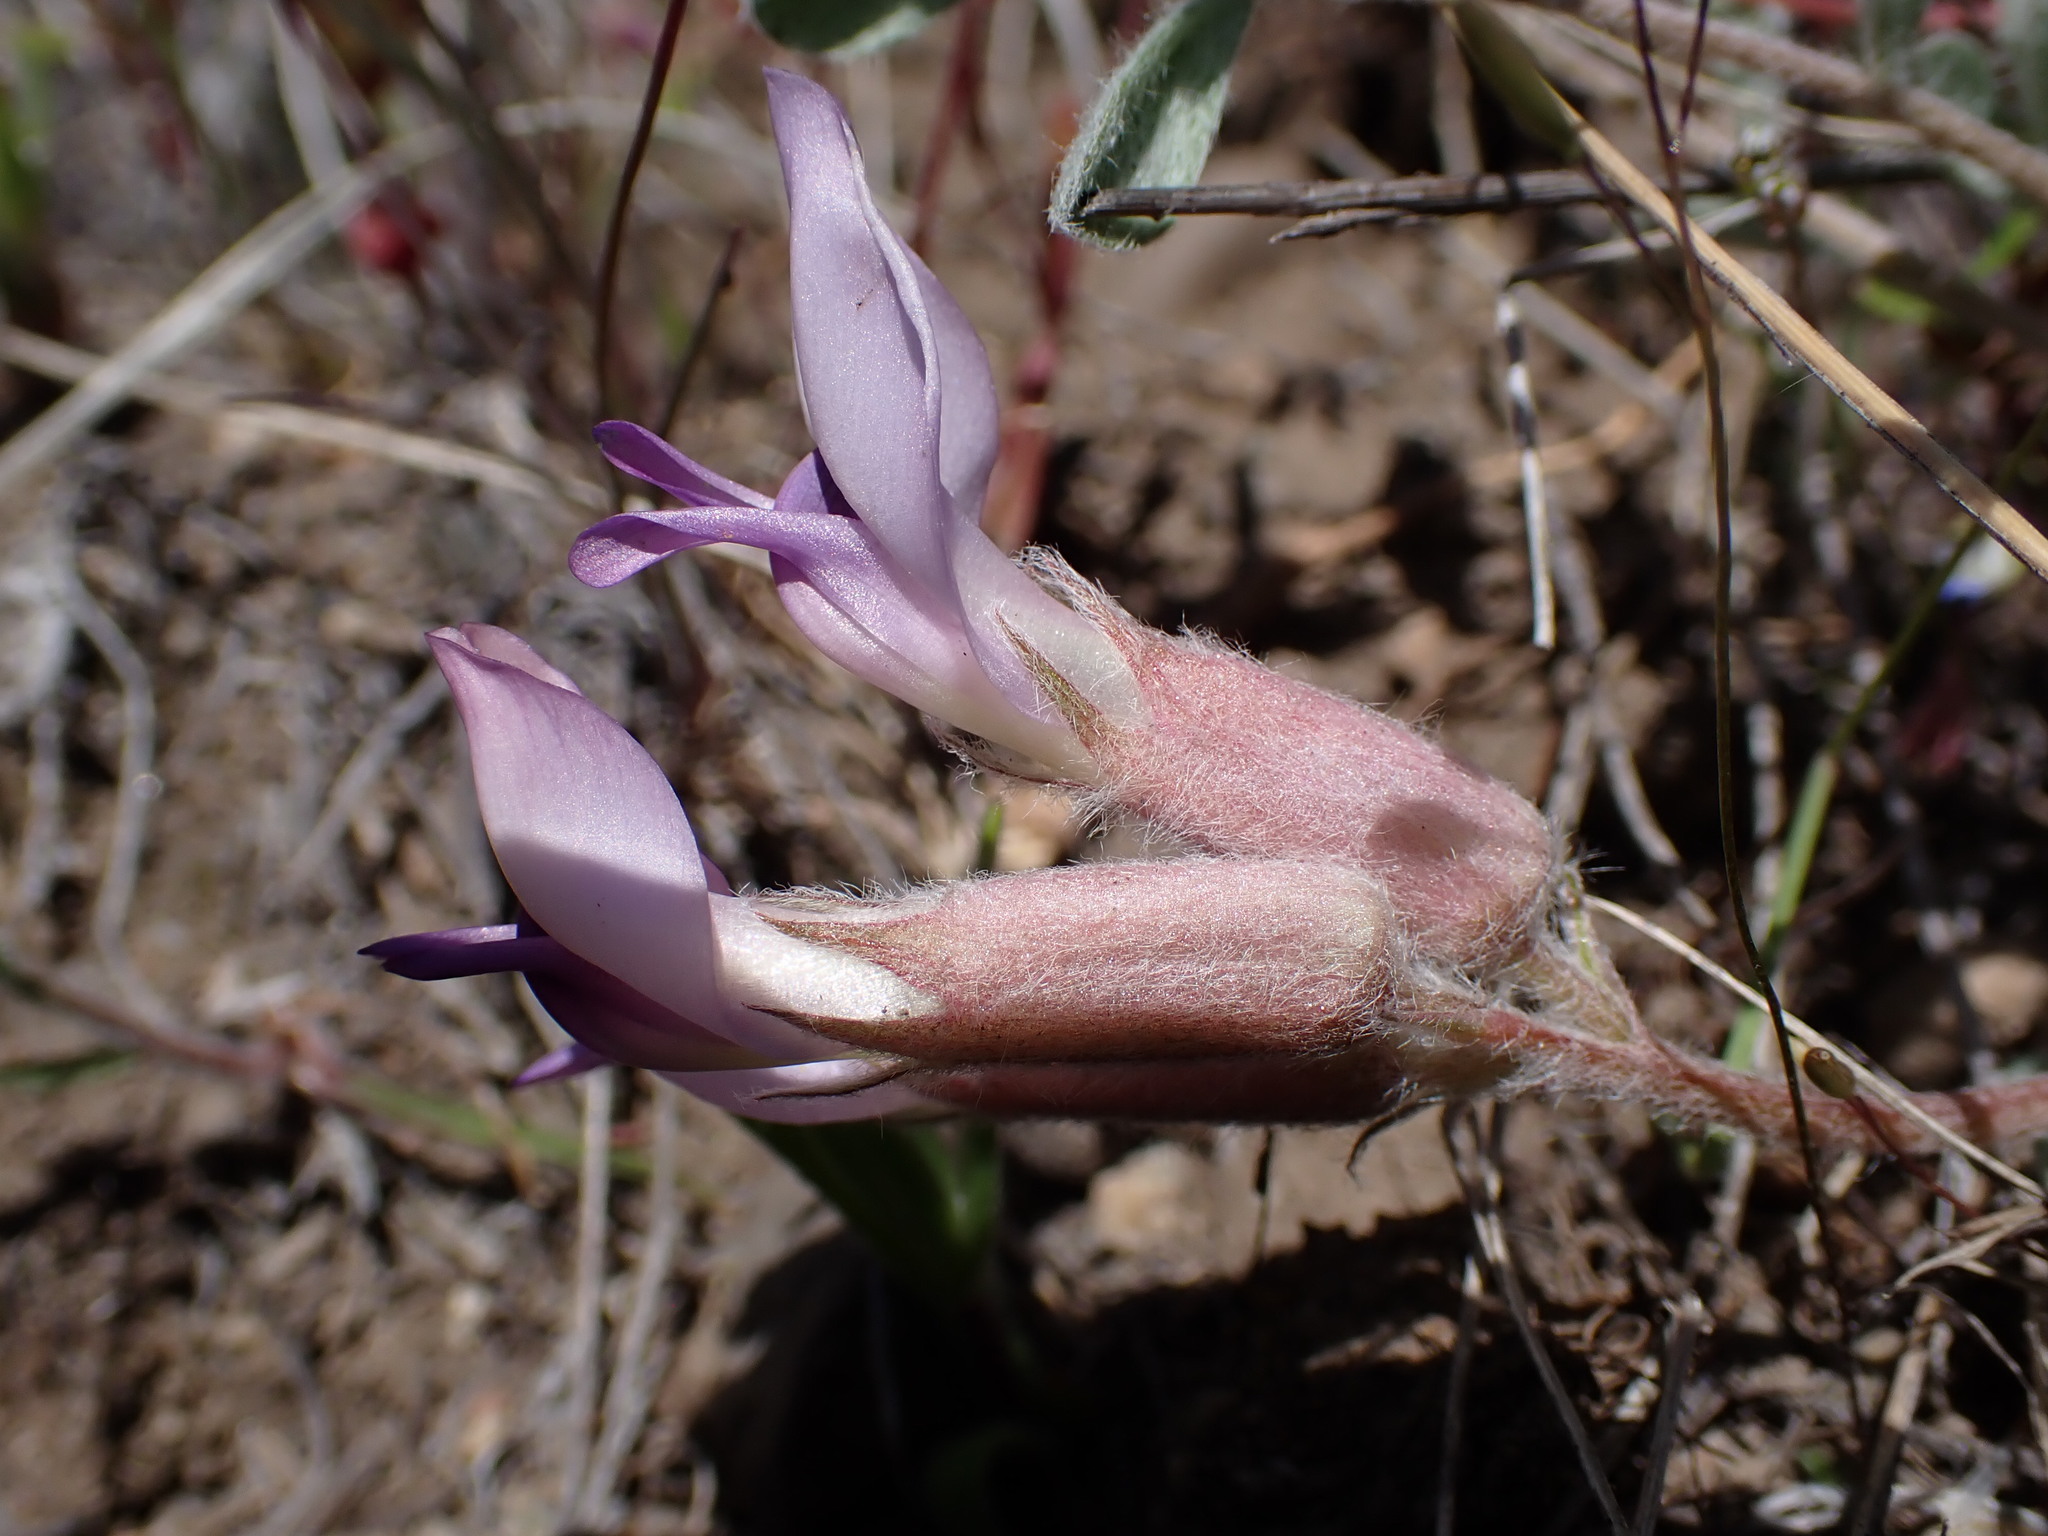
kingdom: Plantae
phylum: Tracheophyta
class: Magnoliopsida
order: Fabales
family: Fabaceae
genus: Astragalus
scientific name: Astragalus purshii
